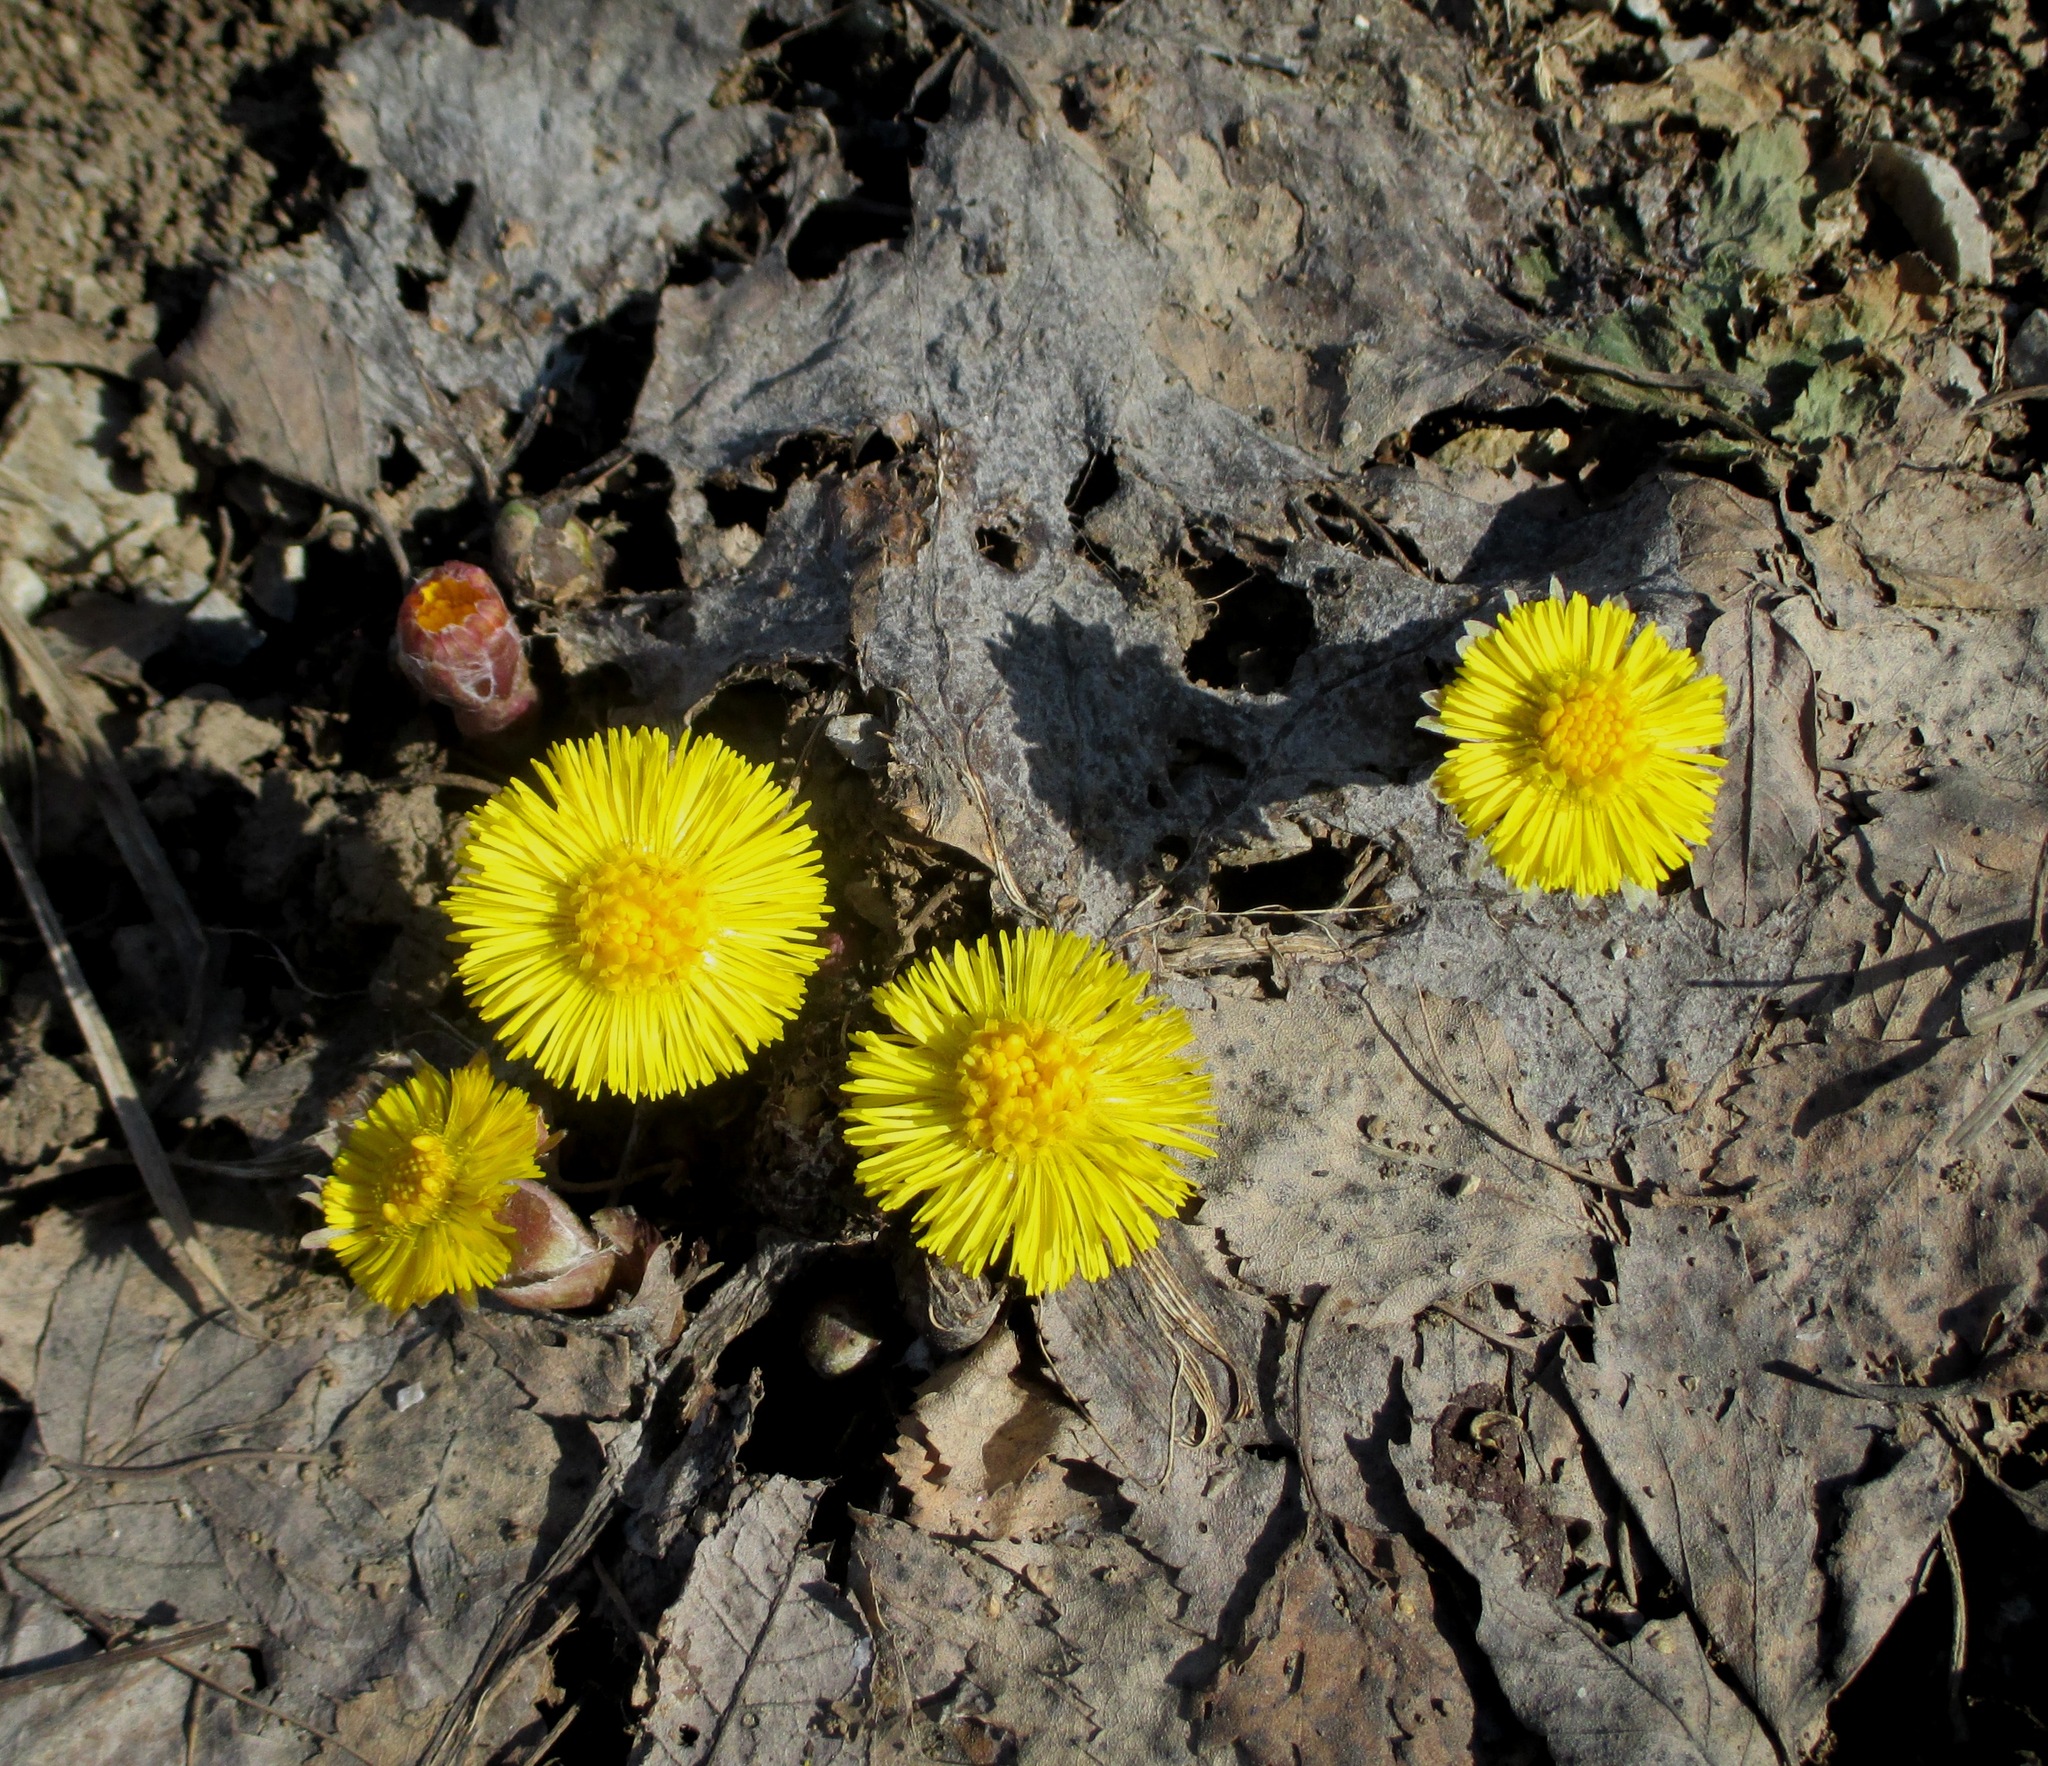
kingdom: Plantae
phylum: Tracheophyta
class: Magnoliopsida
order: Asterales
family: Asteraceae
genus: Tussilago
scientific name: Tussilago farfara
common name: Coltsfoot
